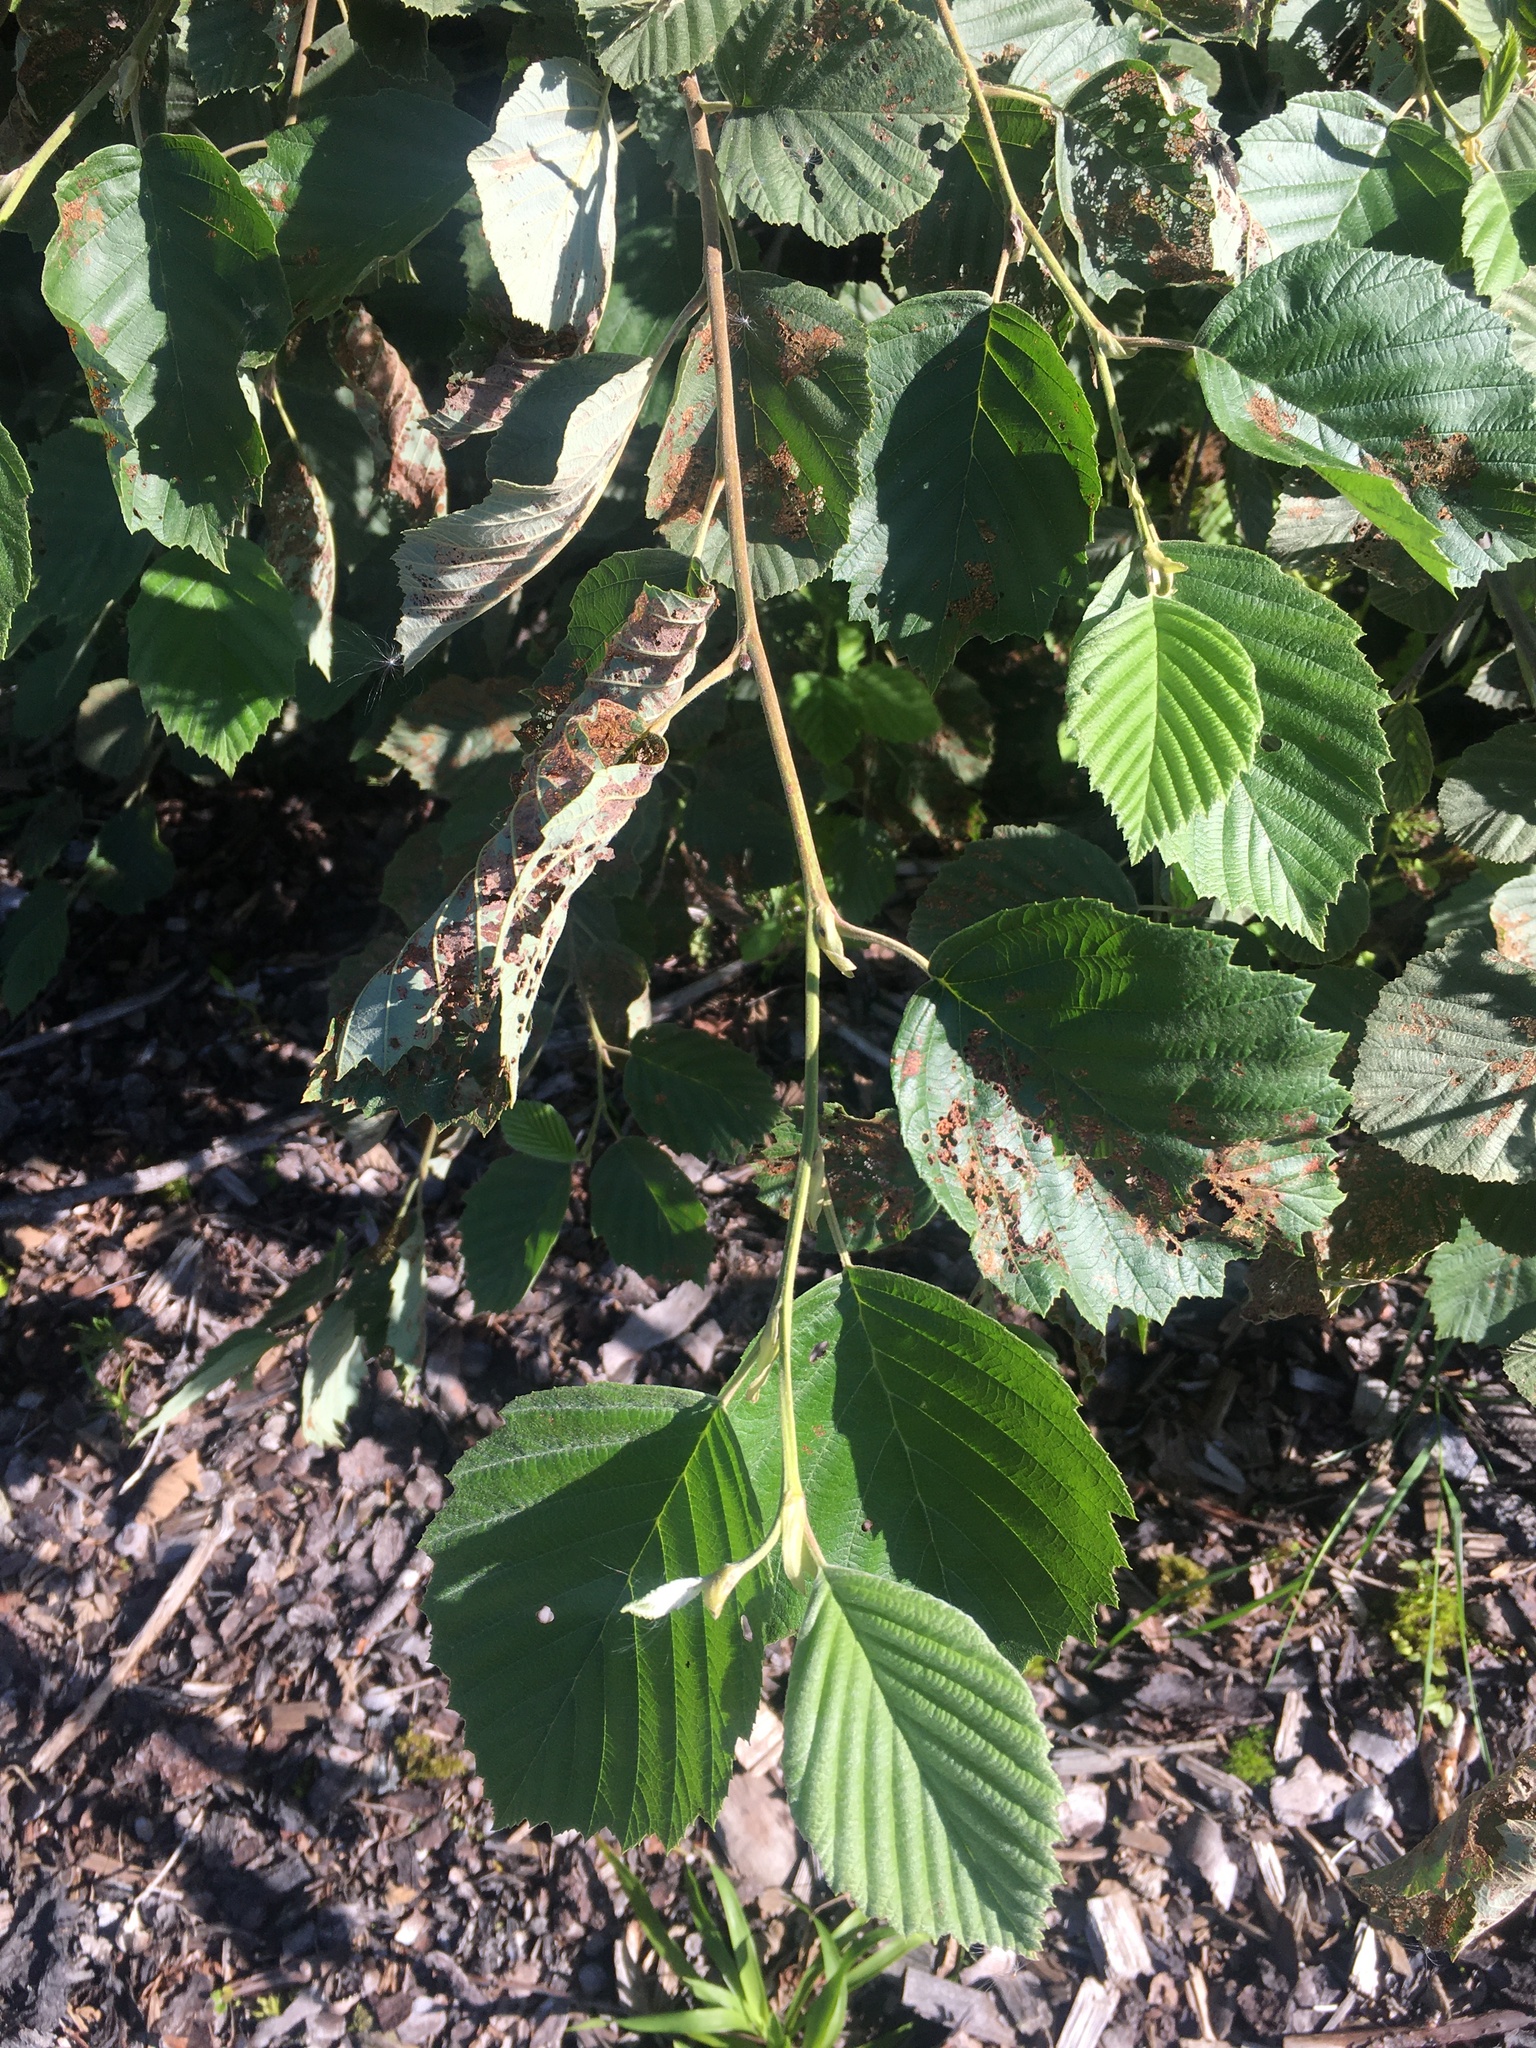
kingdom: Plantae
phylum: Tracheophyta
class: Magnoliopsida
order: Fagales
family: Betulaceae
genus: Alnus
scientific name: Alnus incana
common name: Grey alder
